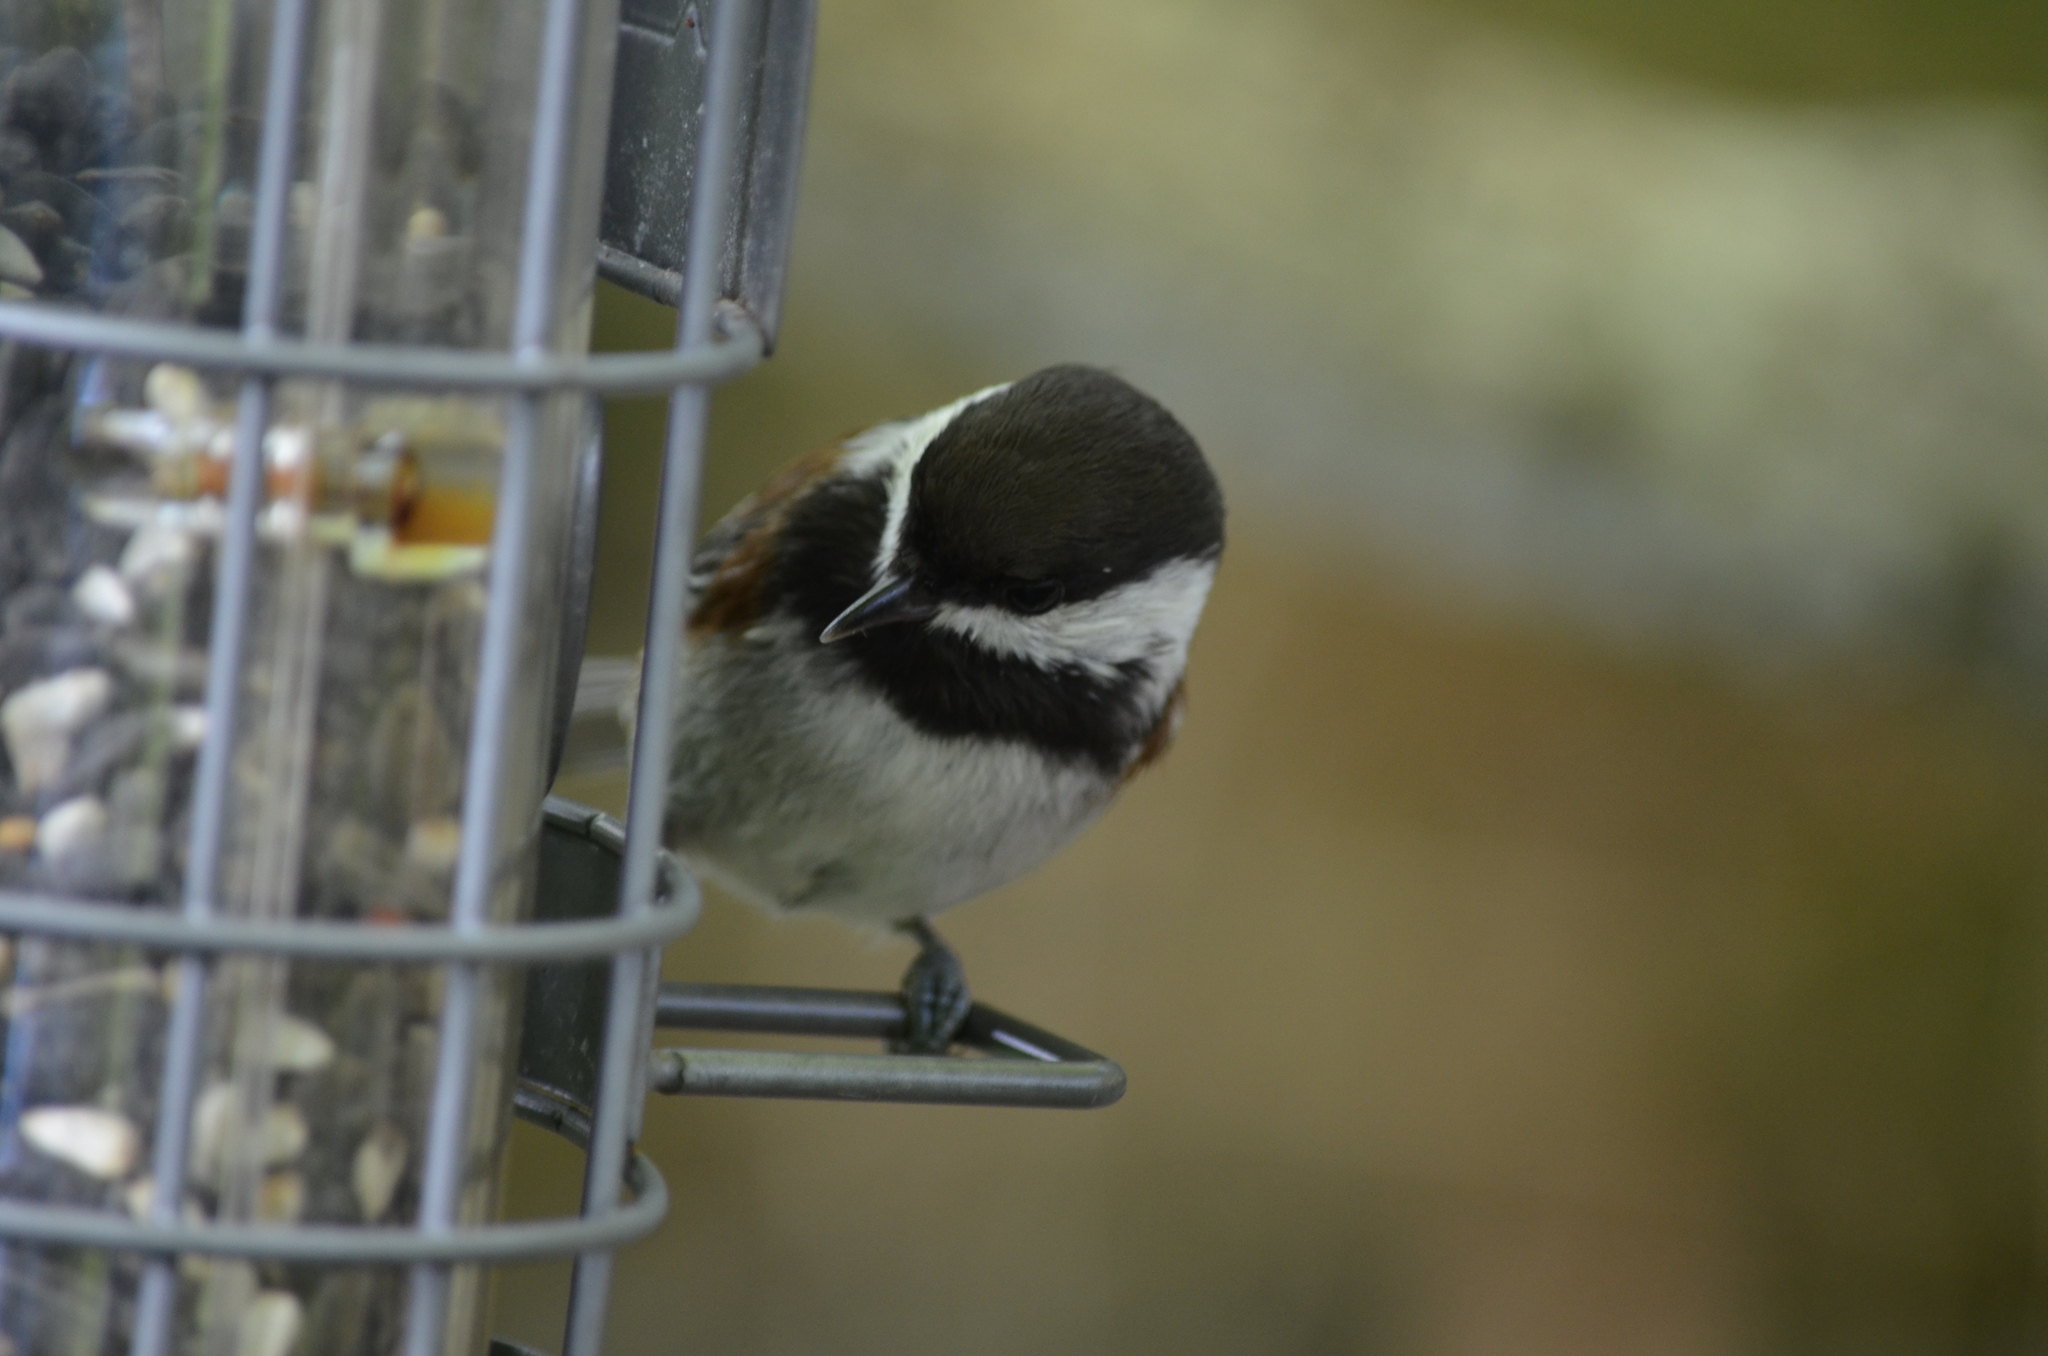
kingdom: Animalia
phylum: Chordata
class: Aves
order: Passeriformes
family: Paridae
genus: Poecile
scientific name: Poecile rufescens
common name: Chestnut-backed chickadee
